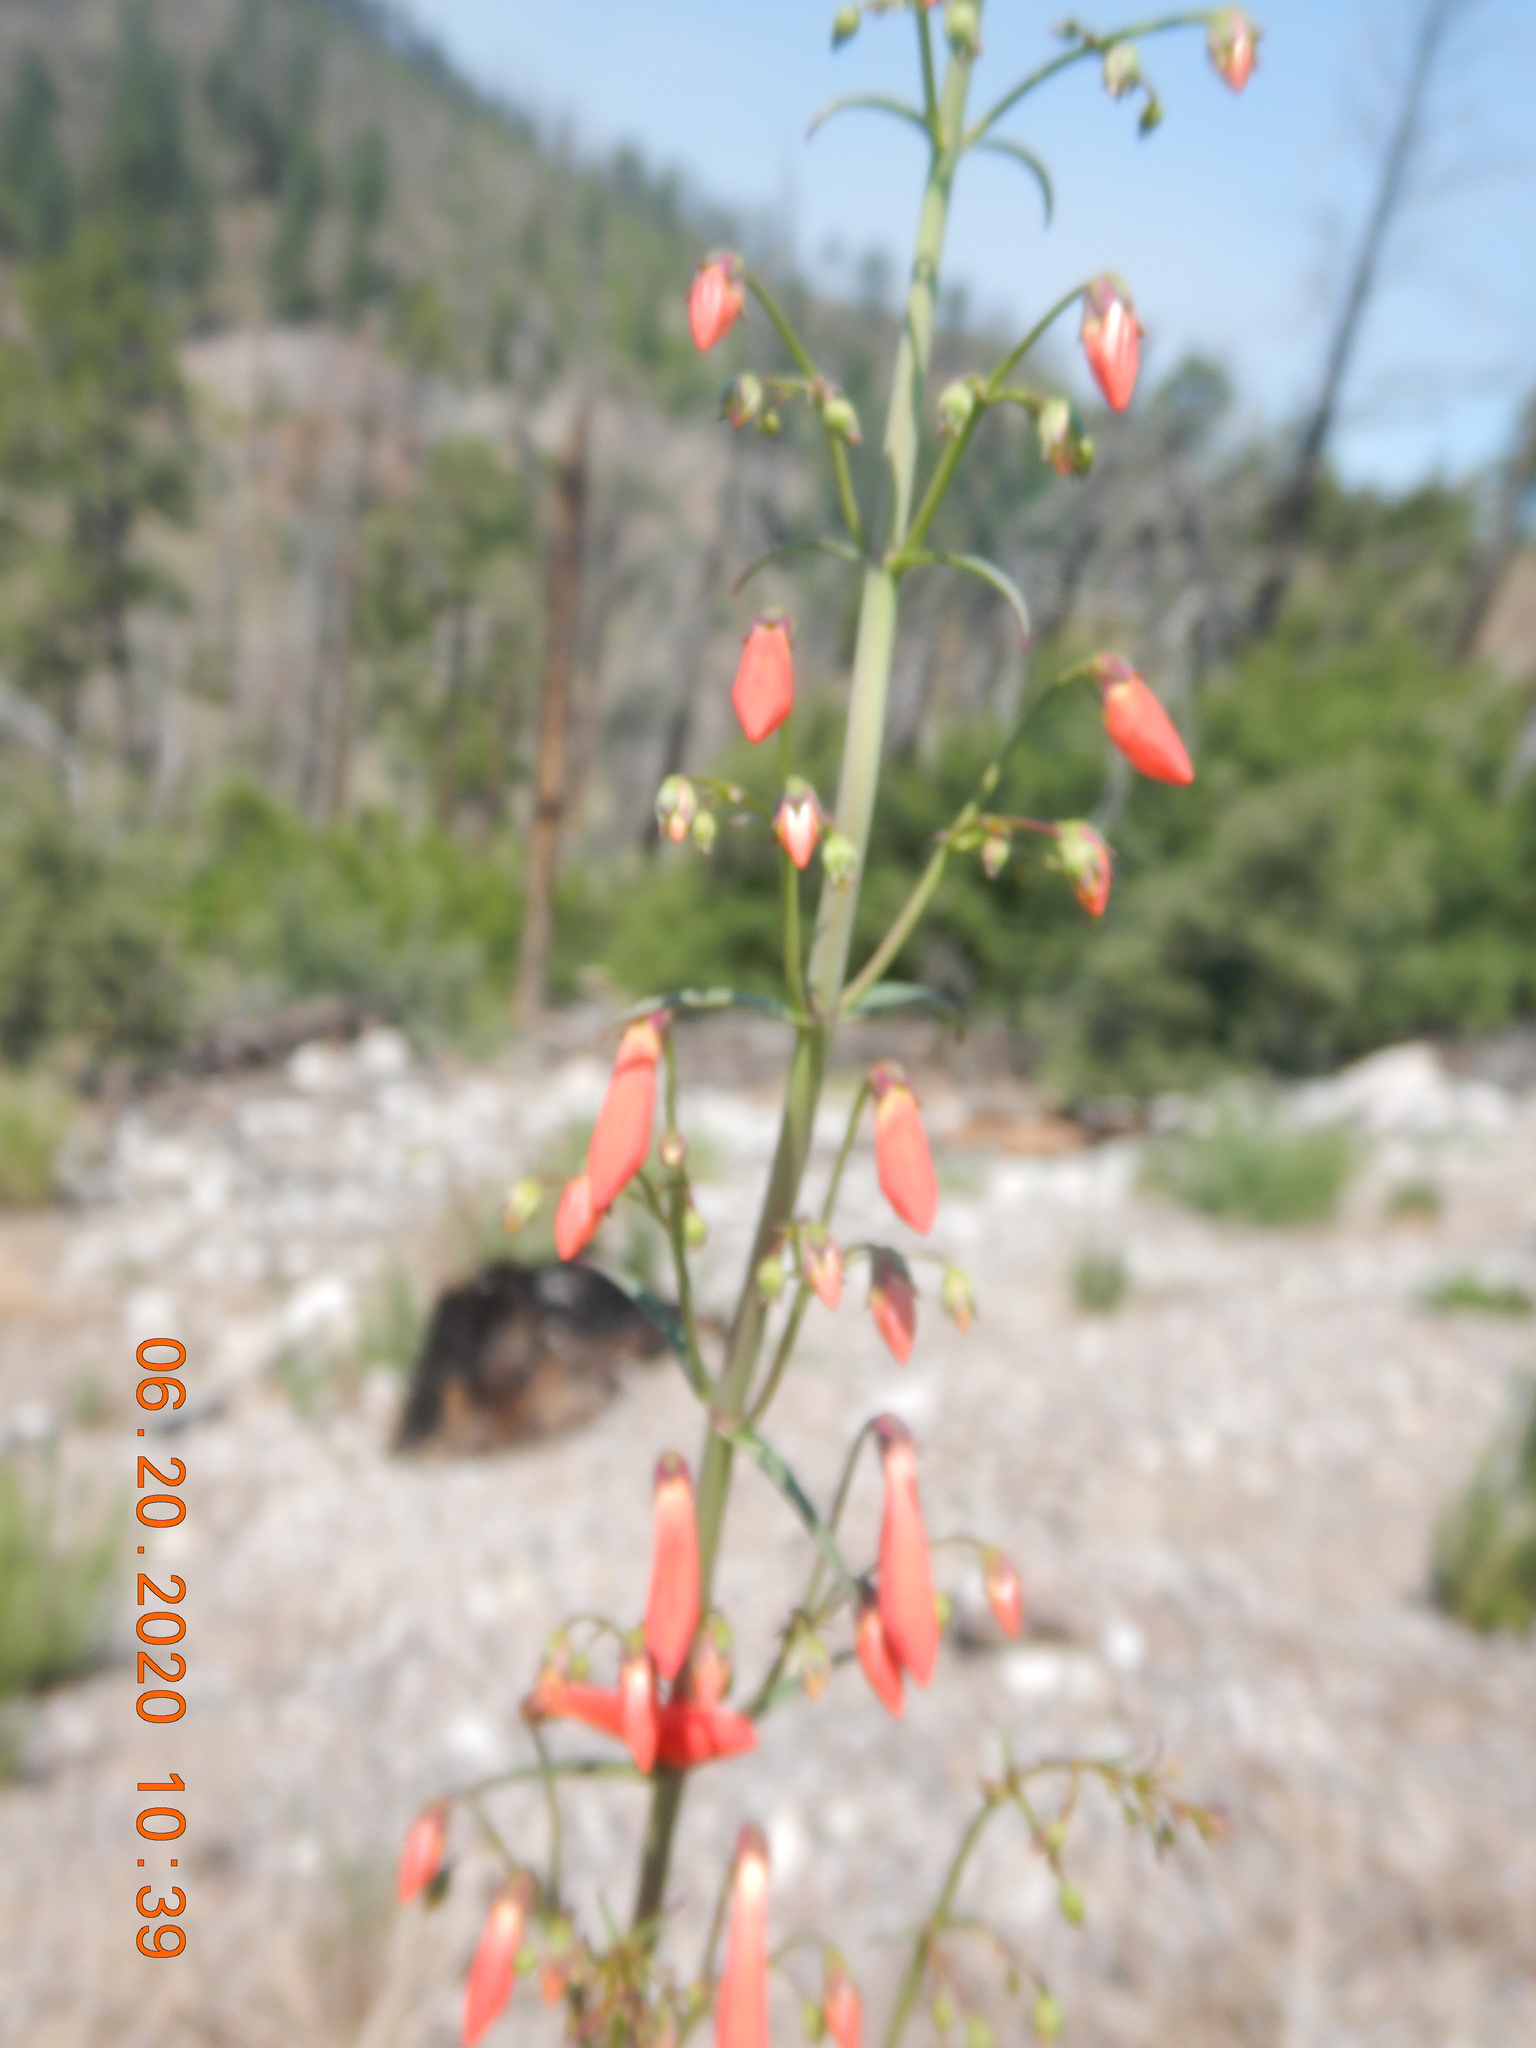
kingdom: Plantae
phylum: Tracheophyta
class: Magnoliopsida
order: Lamiales
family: Plantaginaceae
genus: Penstemon
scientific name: Penstemon barbatus
